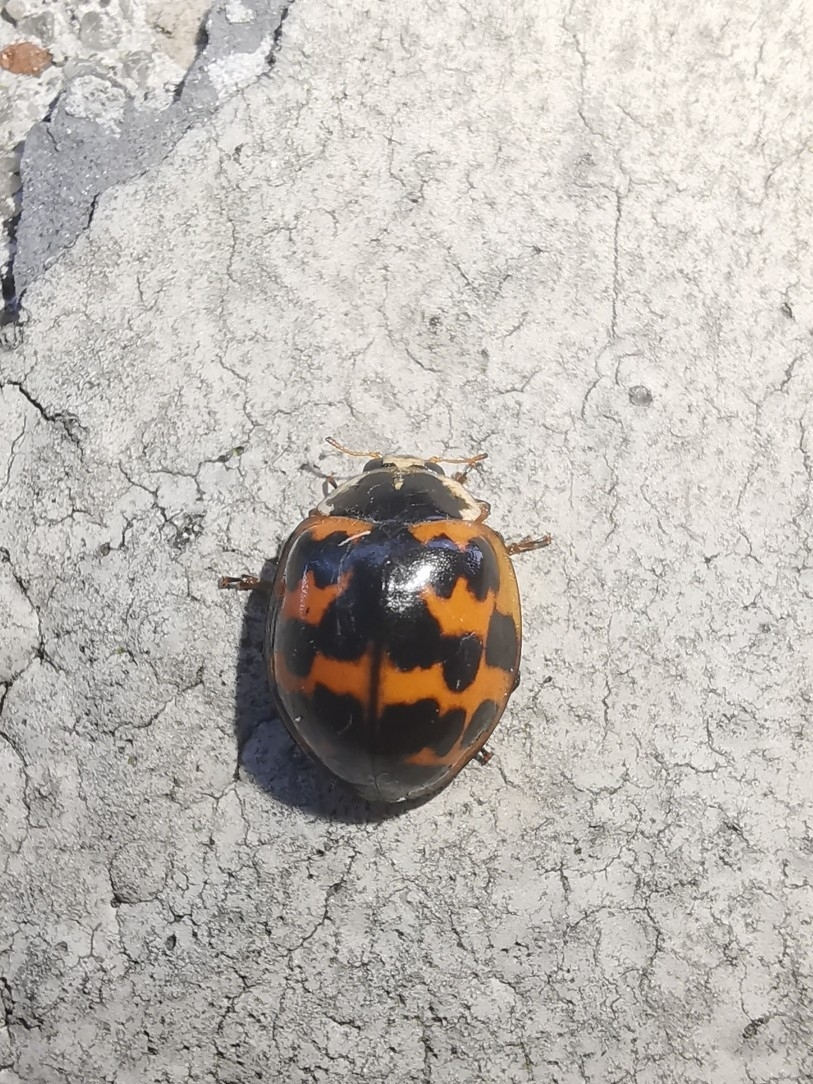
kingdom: Animalia
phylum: Arthropoda
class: Insecta
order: Coleoptera
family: Coccinellidae
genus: Harmonia
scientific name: Harmonia axyridis
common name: Harlequin ladybird
